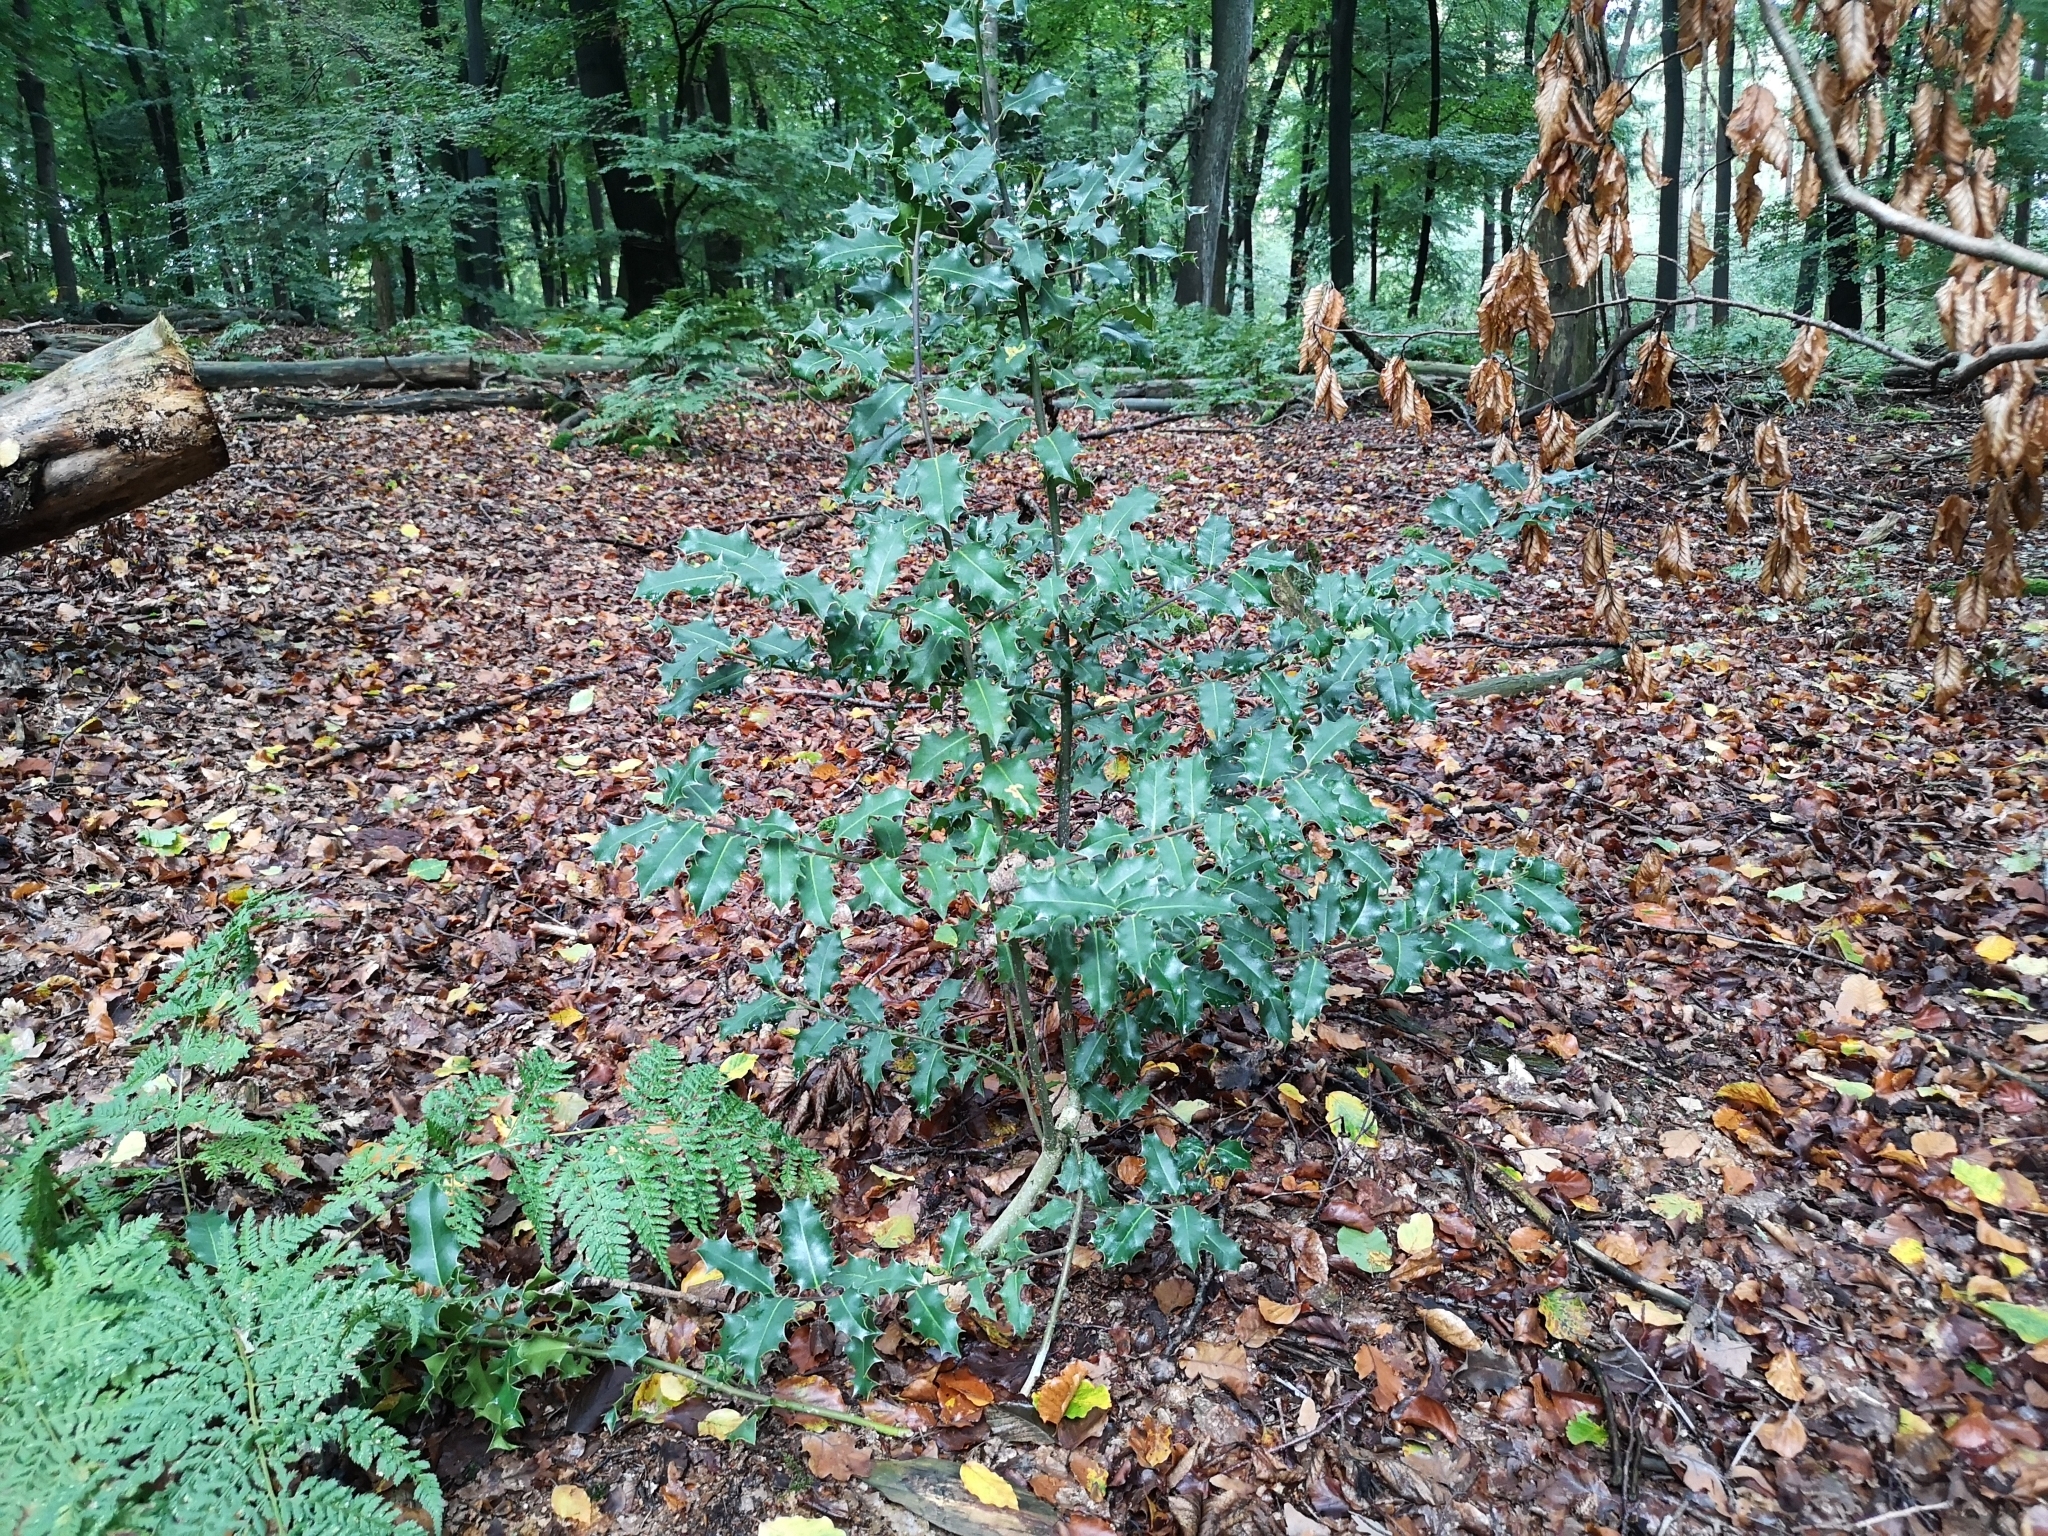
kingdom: Plantae
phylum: Tracheophyta
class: Magnoliopsida
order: Aquifoliales
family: Aquifoliaceae
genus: Ilex
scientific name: Ilex aquifolium
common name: English holly
